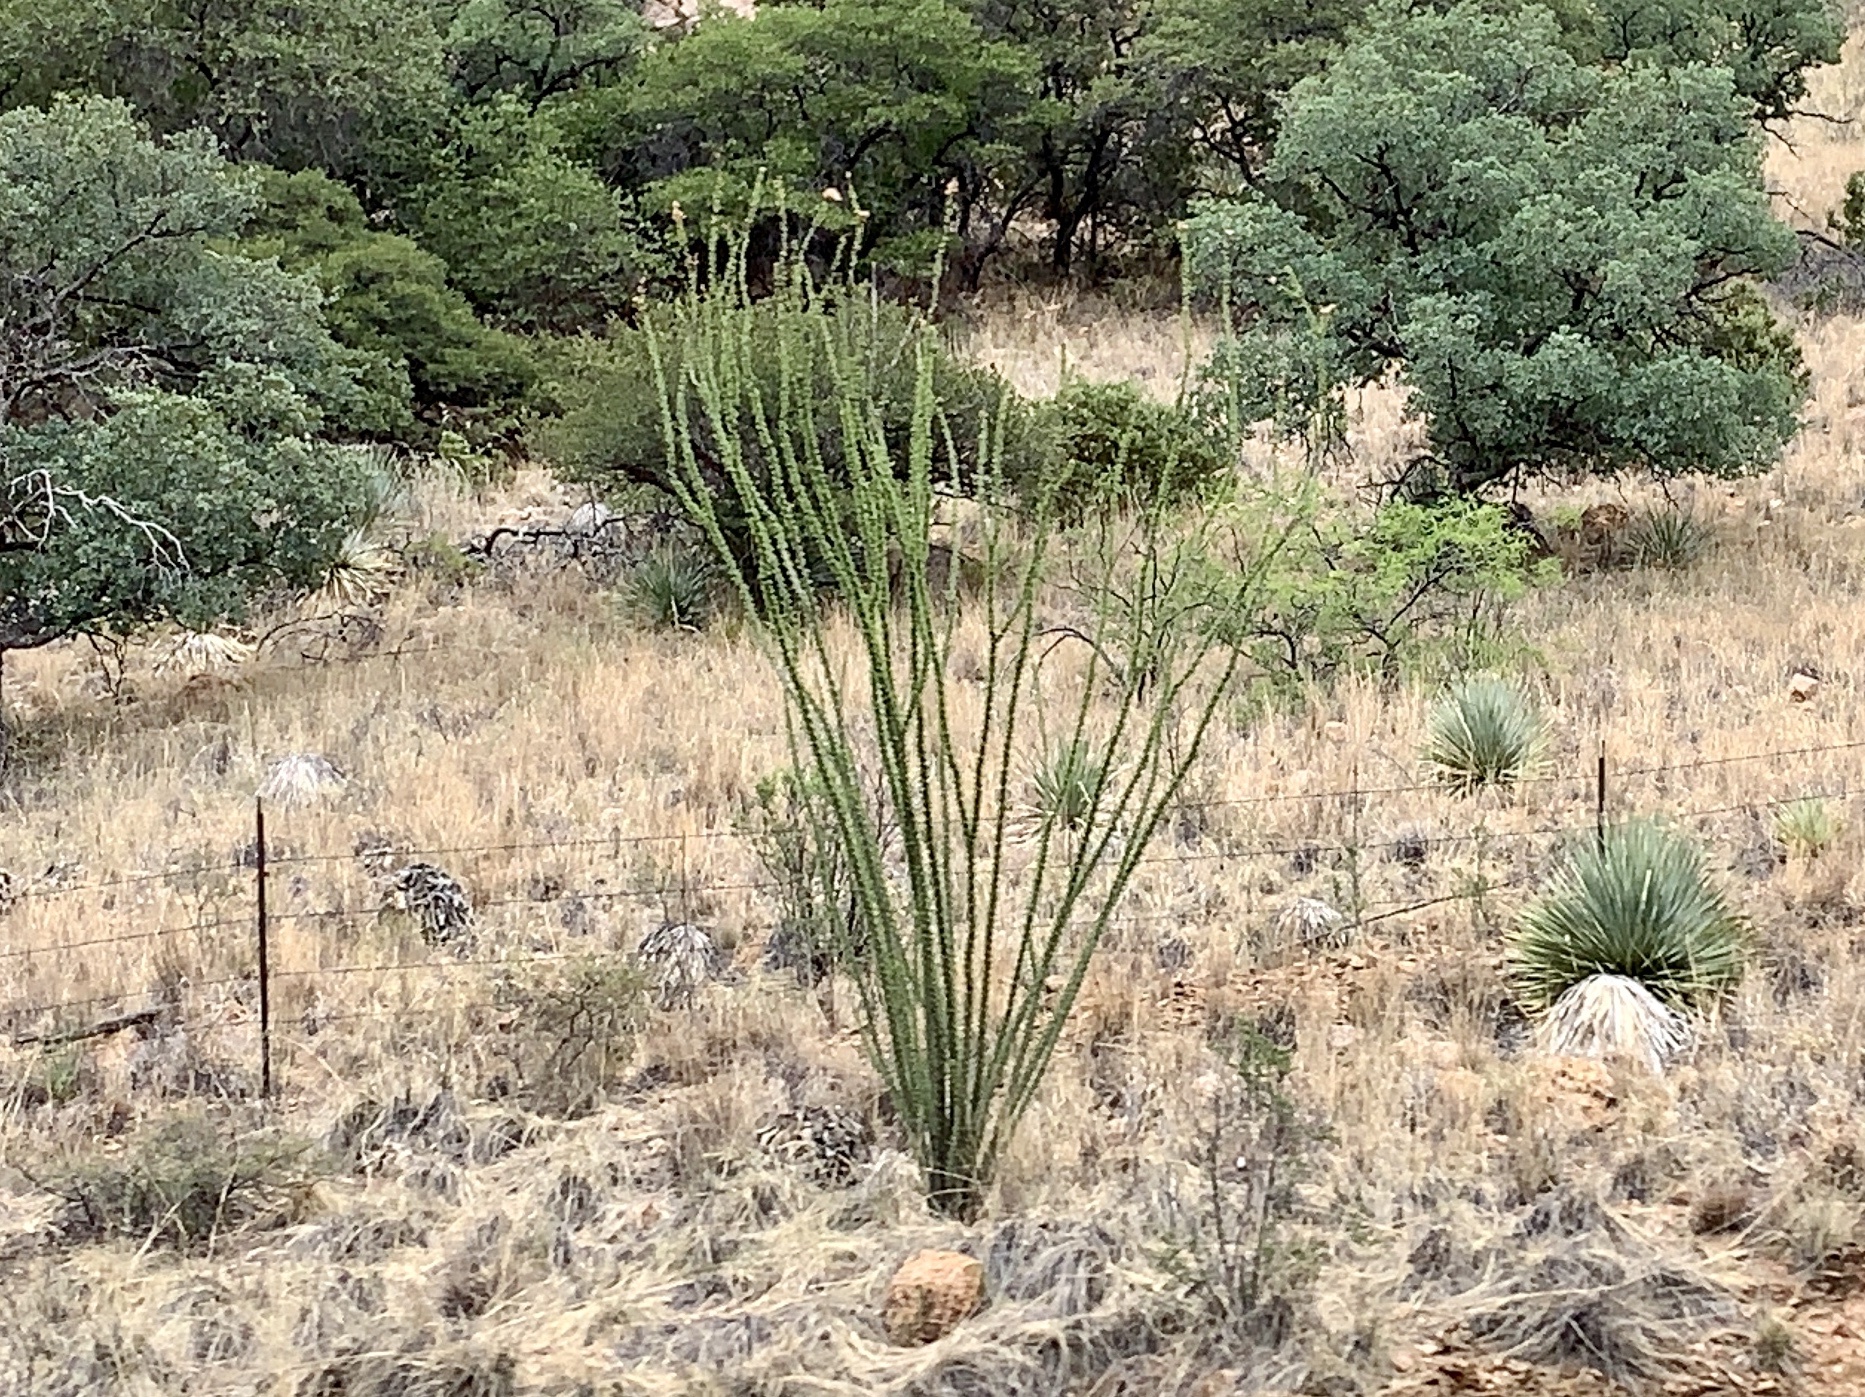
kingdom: Plantae
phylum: Tracheophyta
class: Magnoliopsida
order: Ericales
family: Fouquieriaceae
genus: Fouquieria
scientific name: Fouquieria splendens
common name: Vine-cactus
